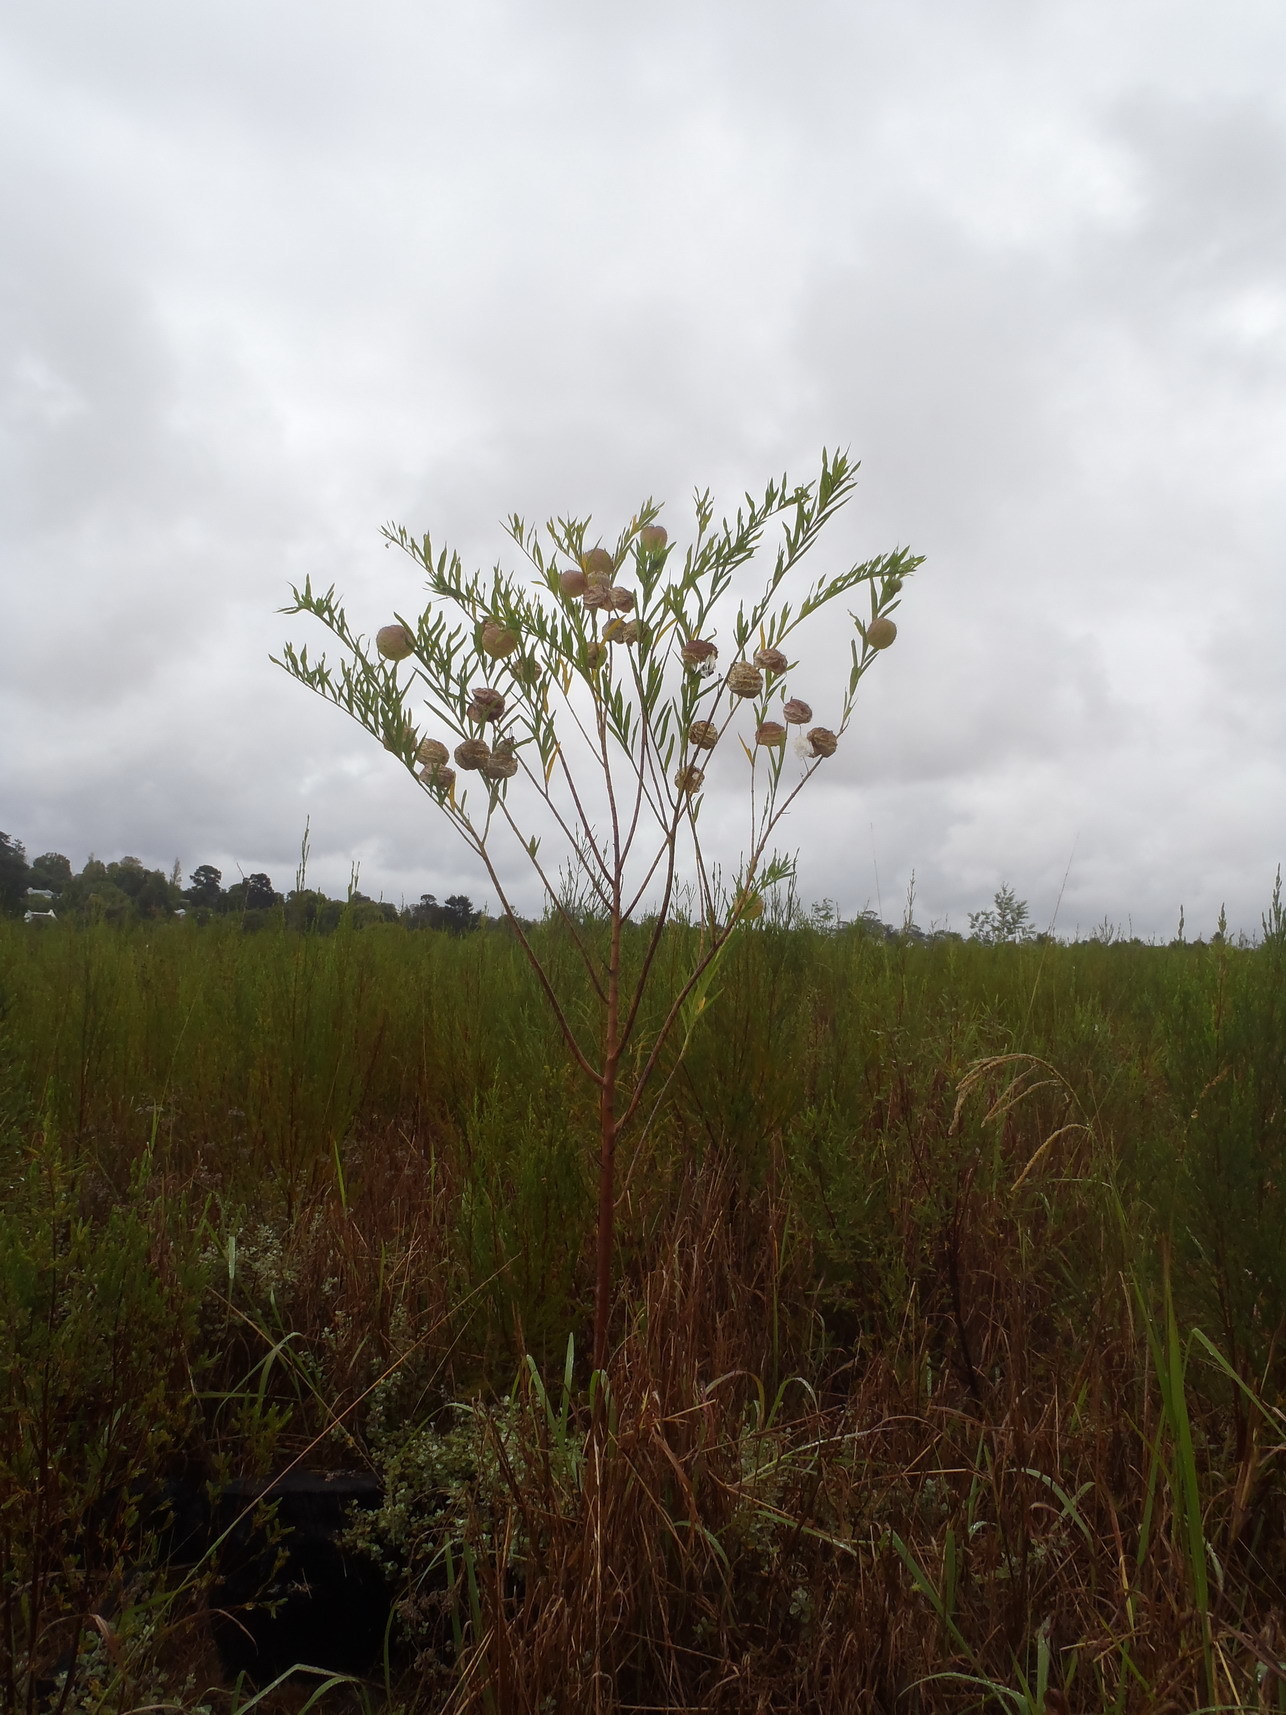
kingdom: Plantae
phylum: Tracheophyta
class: Magnoliopsida
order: Gentianales
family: Apocynaceae
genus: Gomphocarpus
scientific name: Gomphocarpus physocarpus
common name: Balloon cotton bush
